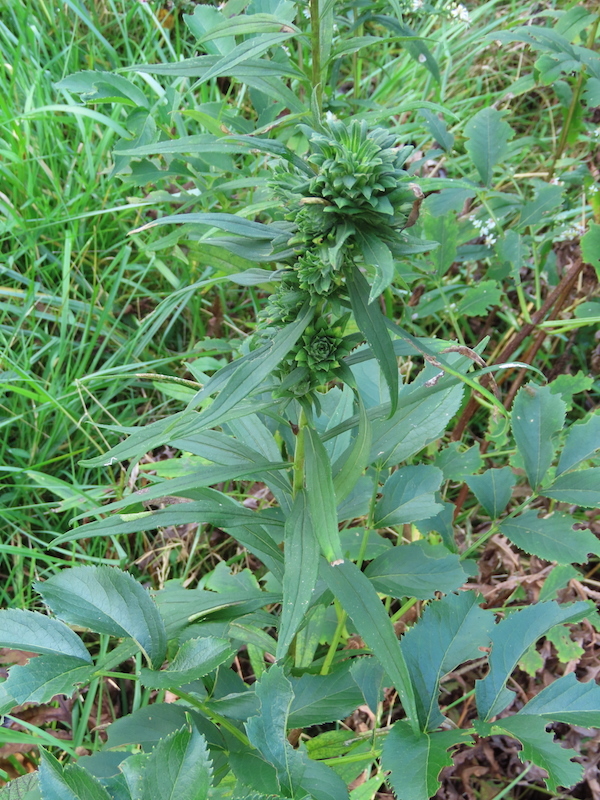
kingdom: Animalia
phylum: Arthropoda
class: Insecta
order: Diptera
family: Tephritidae
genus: Procecidochares
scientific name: Procecidochares atra
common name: Goldenrod brussels sprout gall fly
